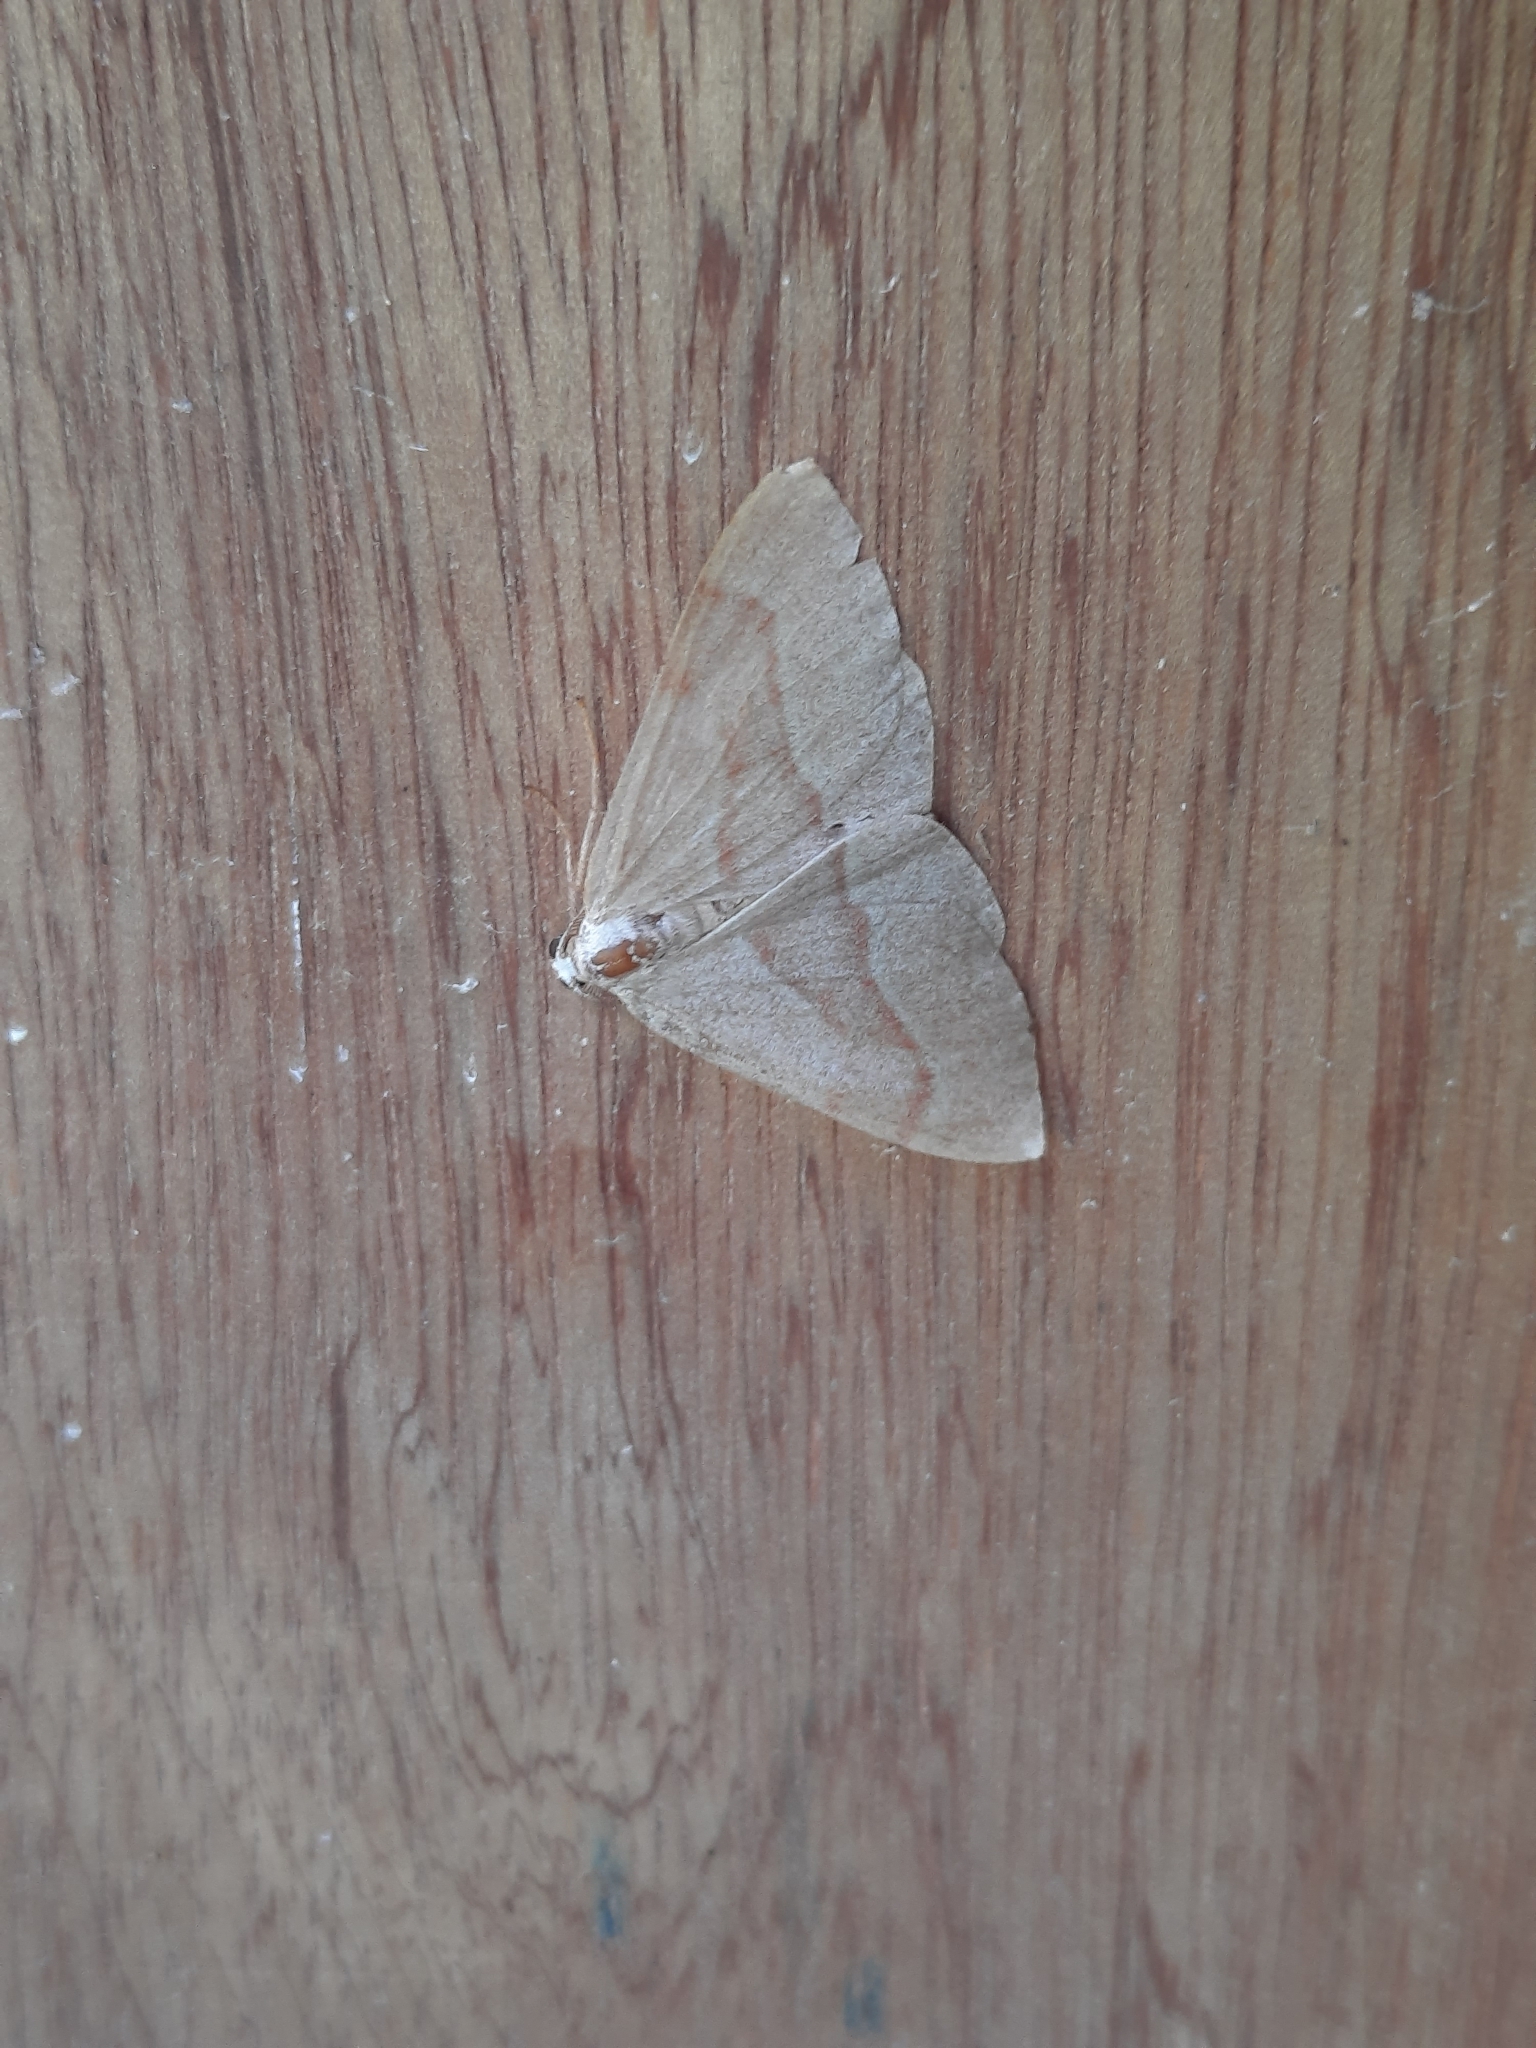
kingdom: Animalia
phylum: Arthropoda
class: Insecta
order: Lepidoptera
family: Geometridae
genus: Hylaea
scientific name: Hylaea fasciaria
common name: Barred red
